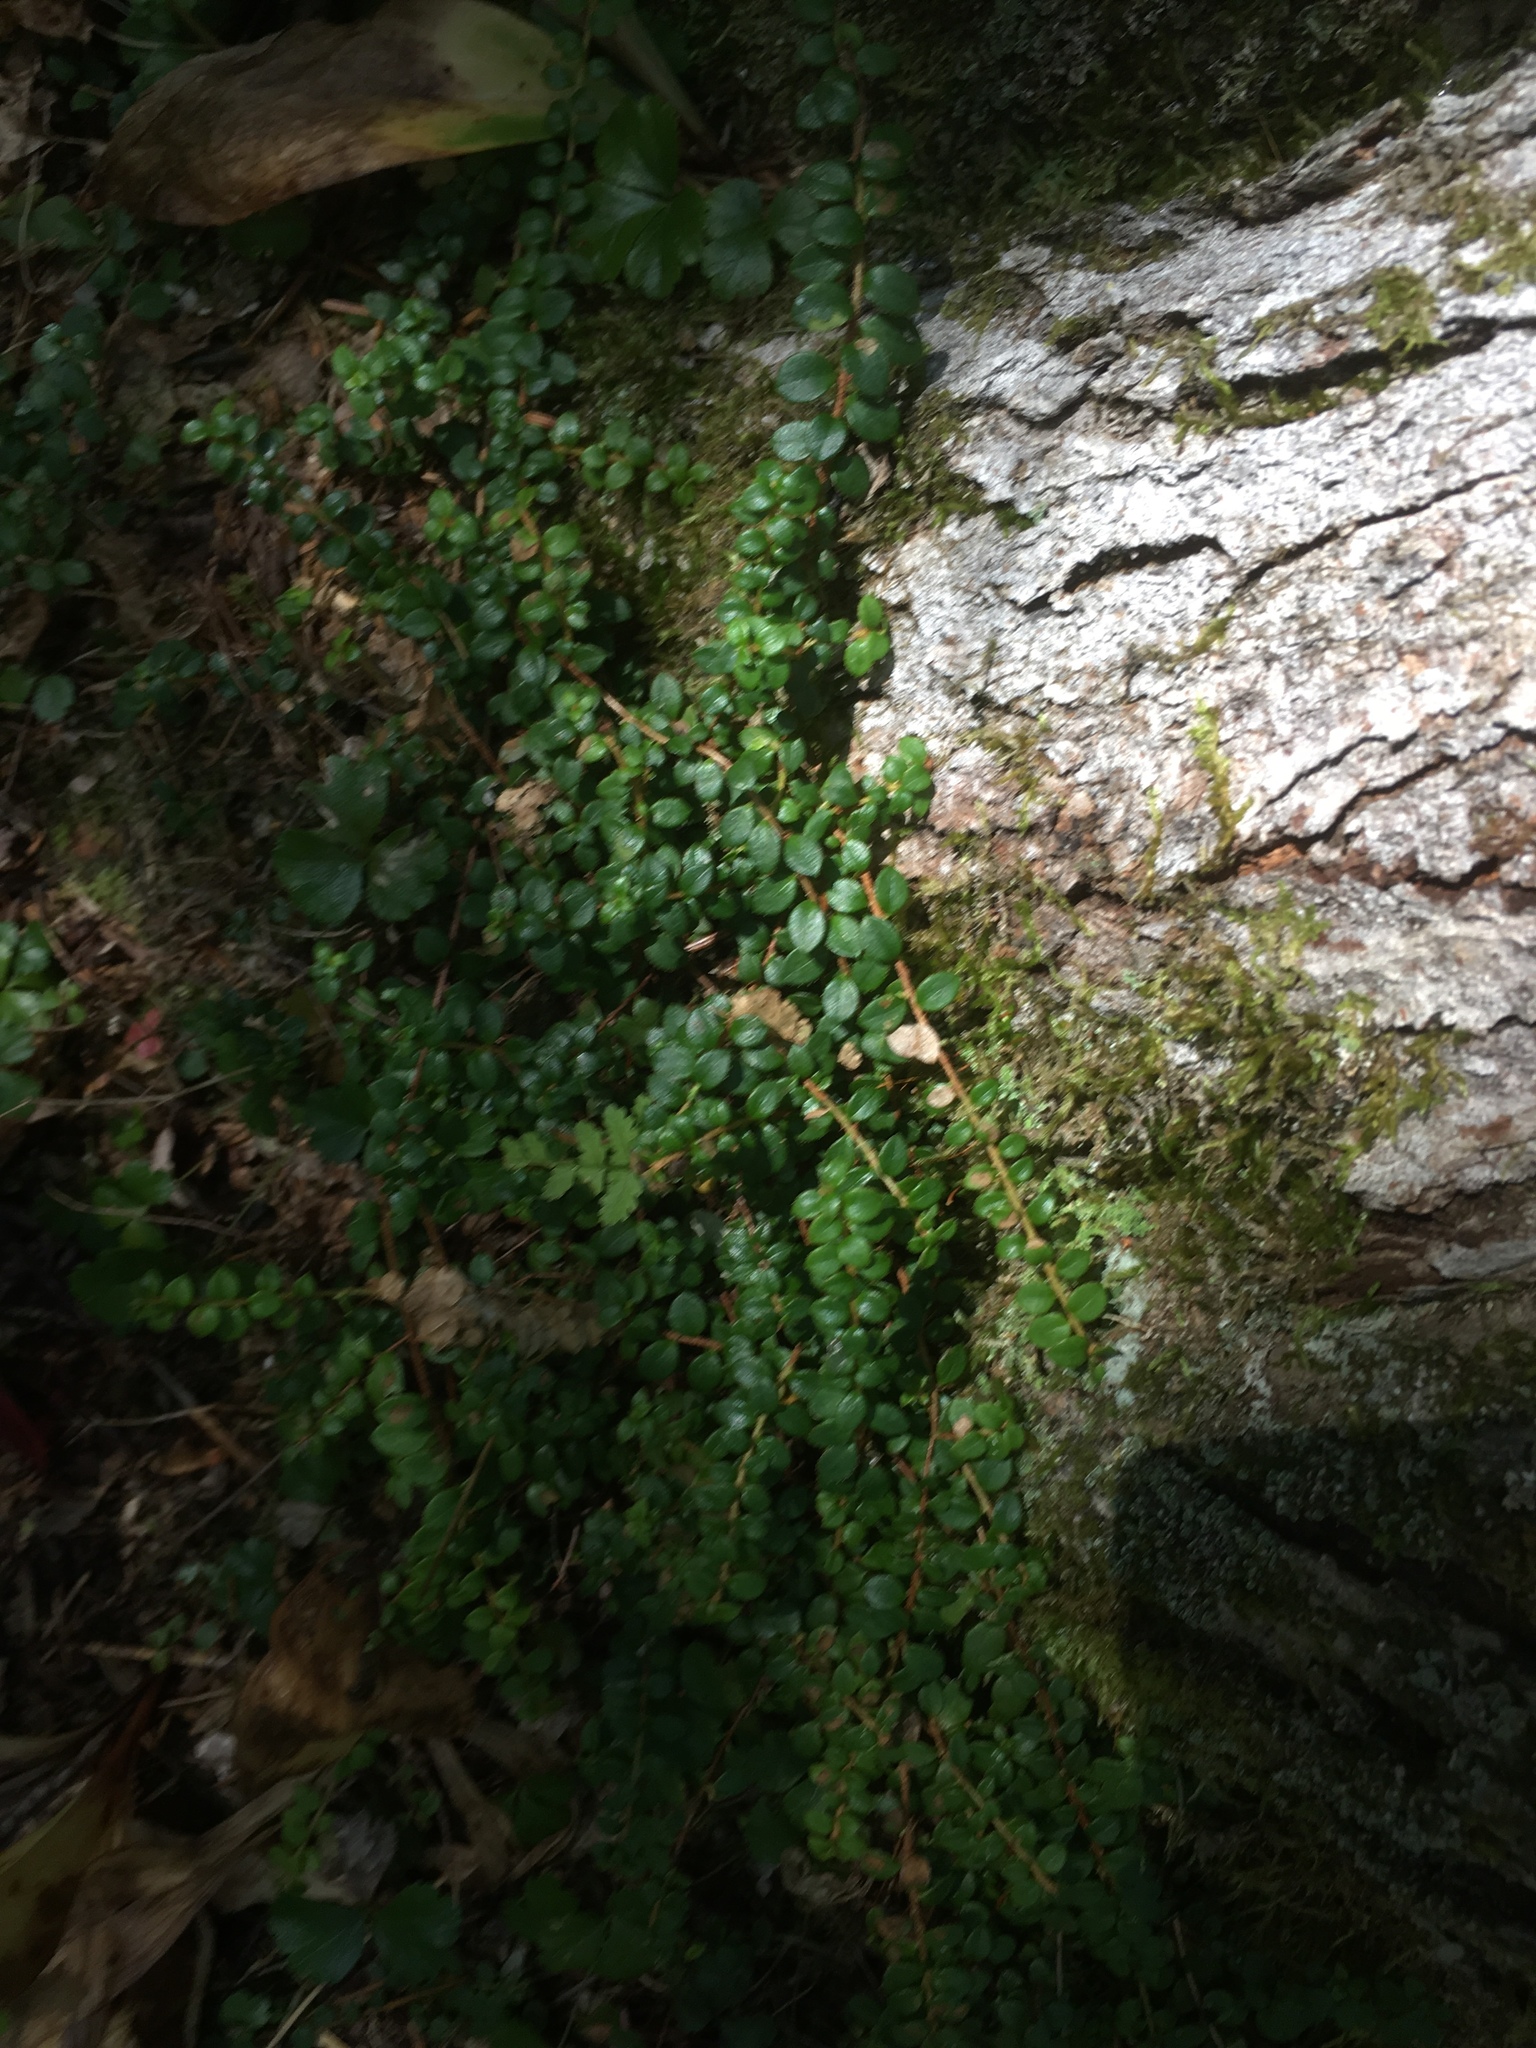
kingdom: Plantae
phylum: Tracheophyta
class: Magnoliopsida
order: Ericales
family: Ericaceae
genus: Gaultheria
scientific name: Gaultheria hispidula
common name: Cancer wintergreen
